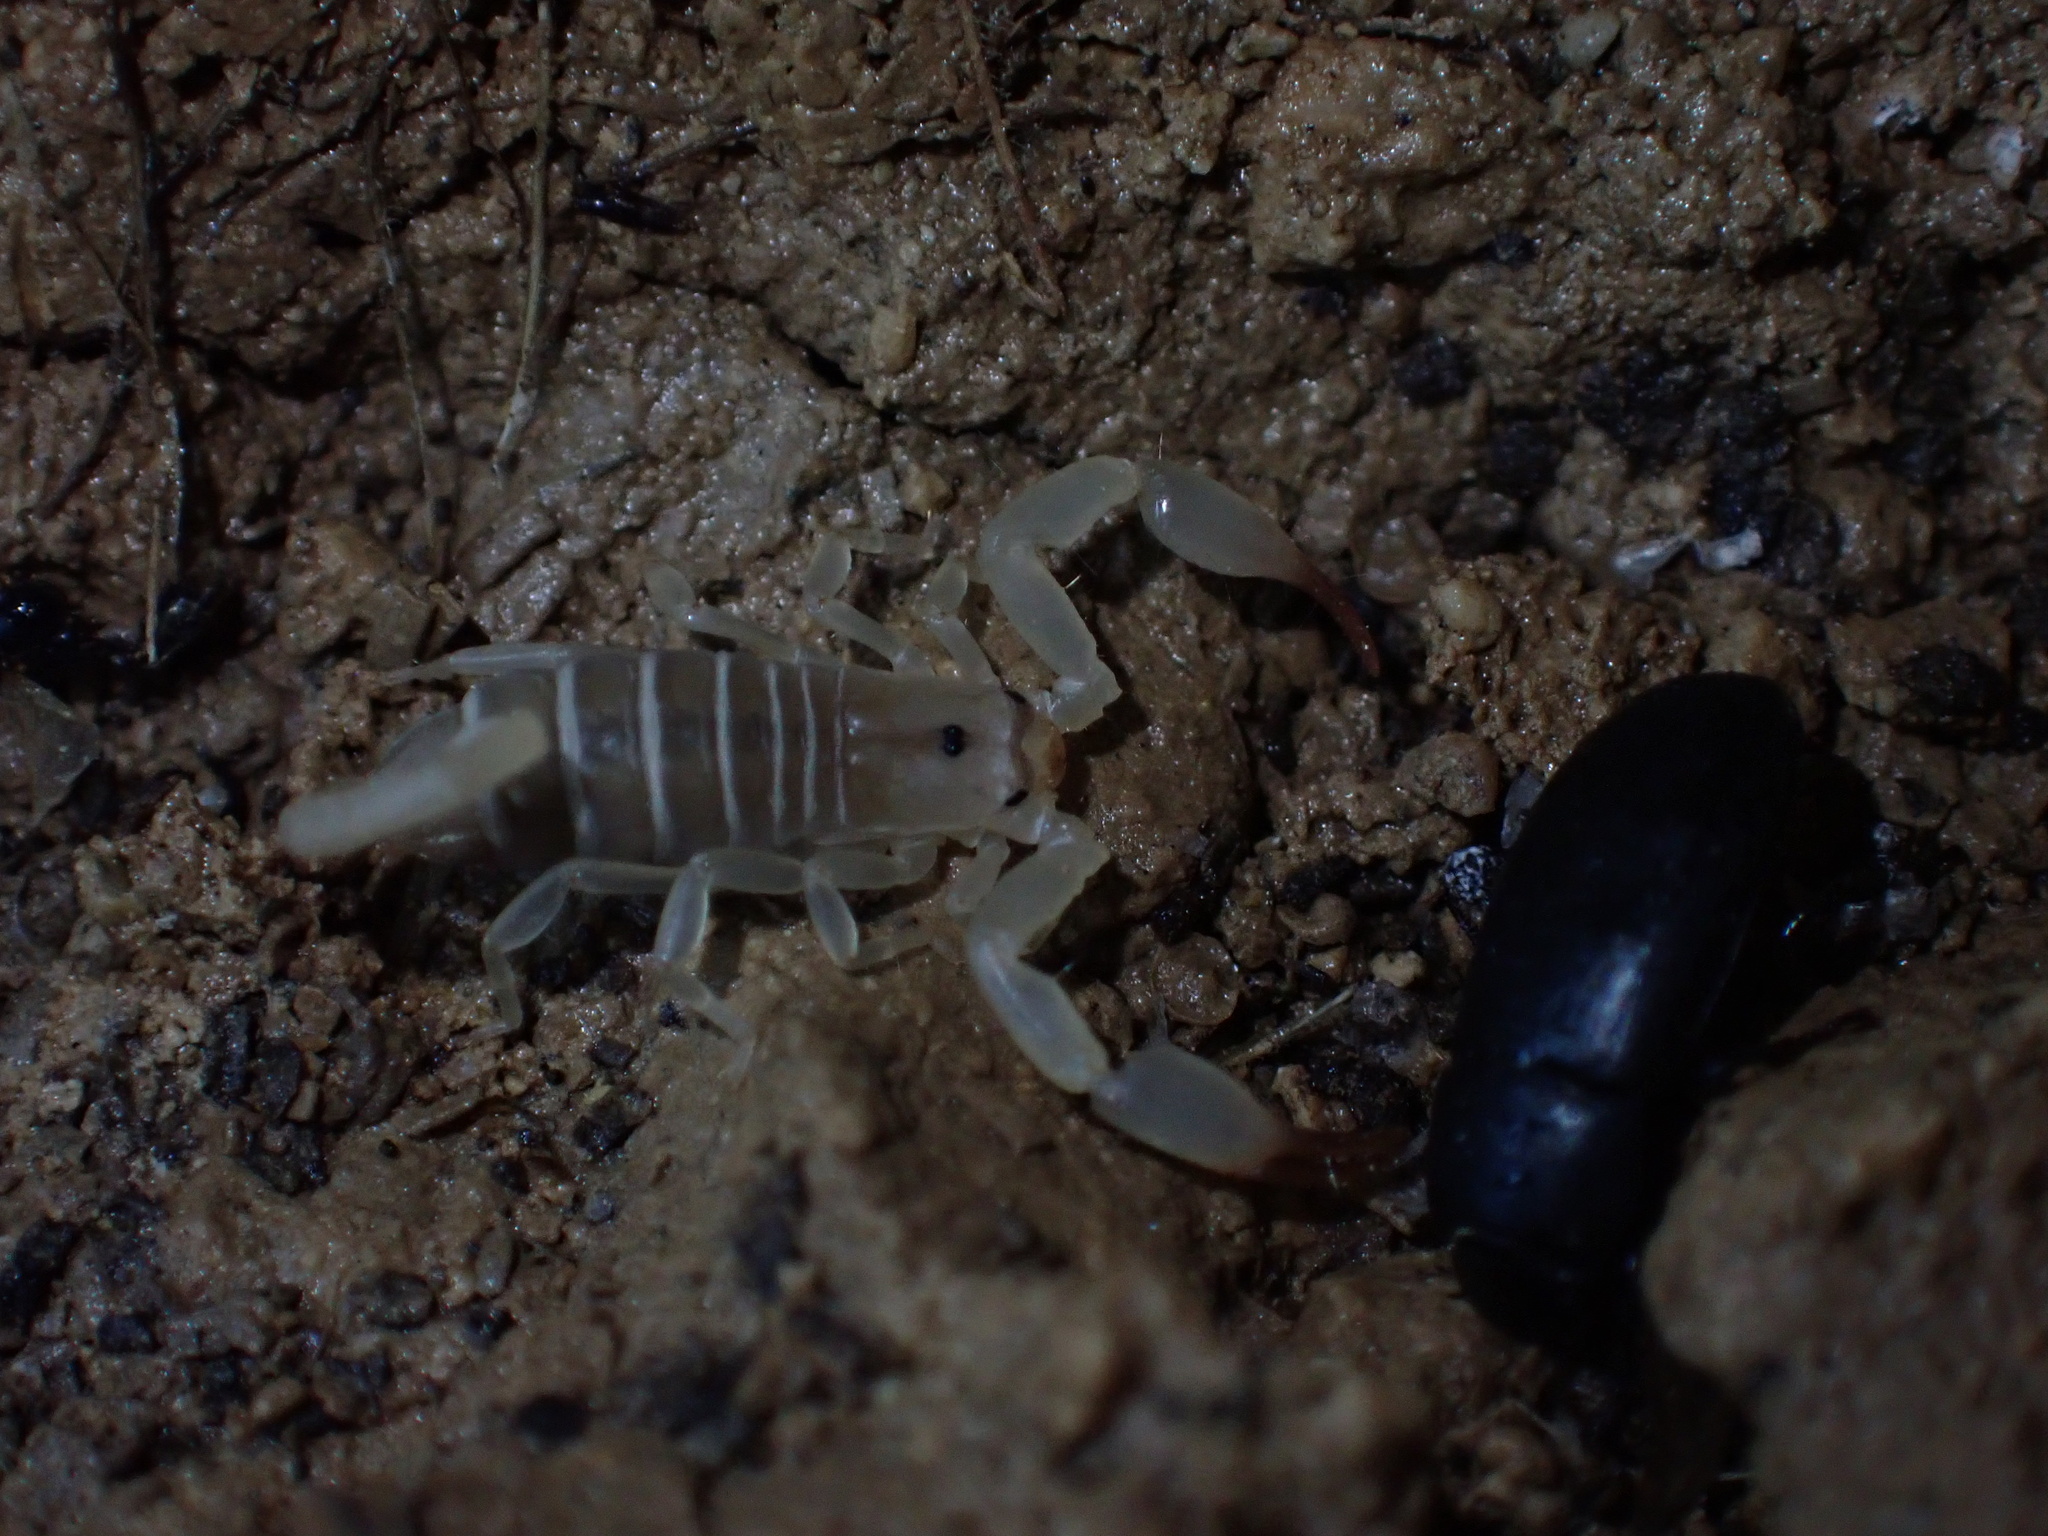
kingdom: Animalia
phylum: Arthropoda
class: Arachnida
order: Scorpiones
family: Hemiscorpiidae
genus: Hemiscorpius
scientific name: Hemiscorpius lepturus
